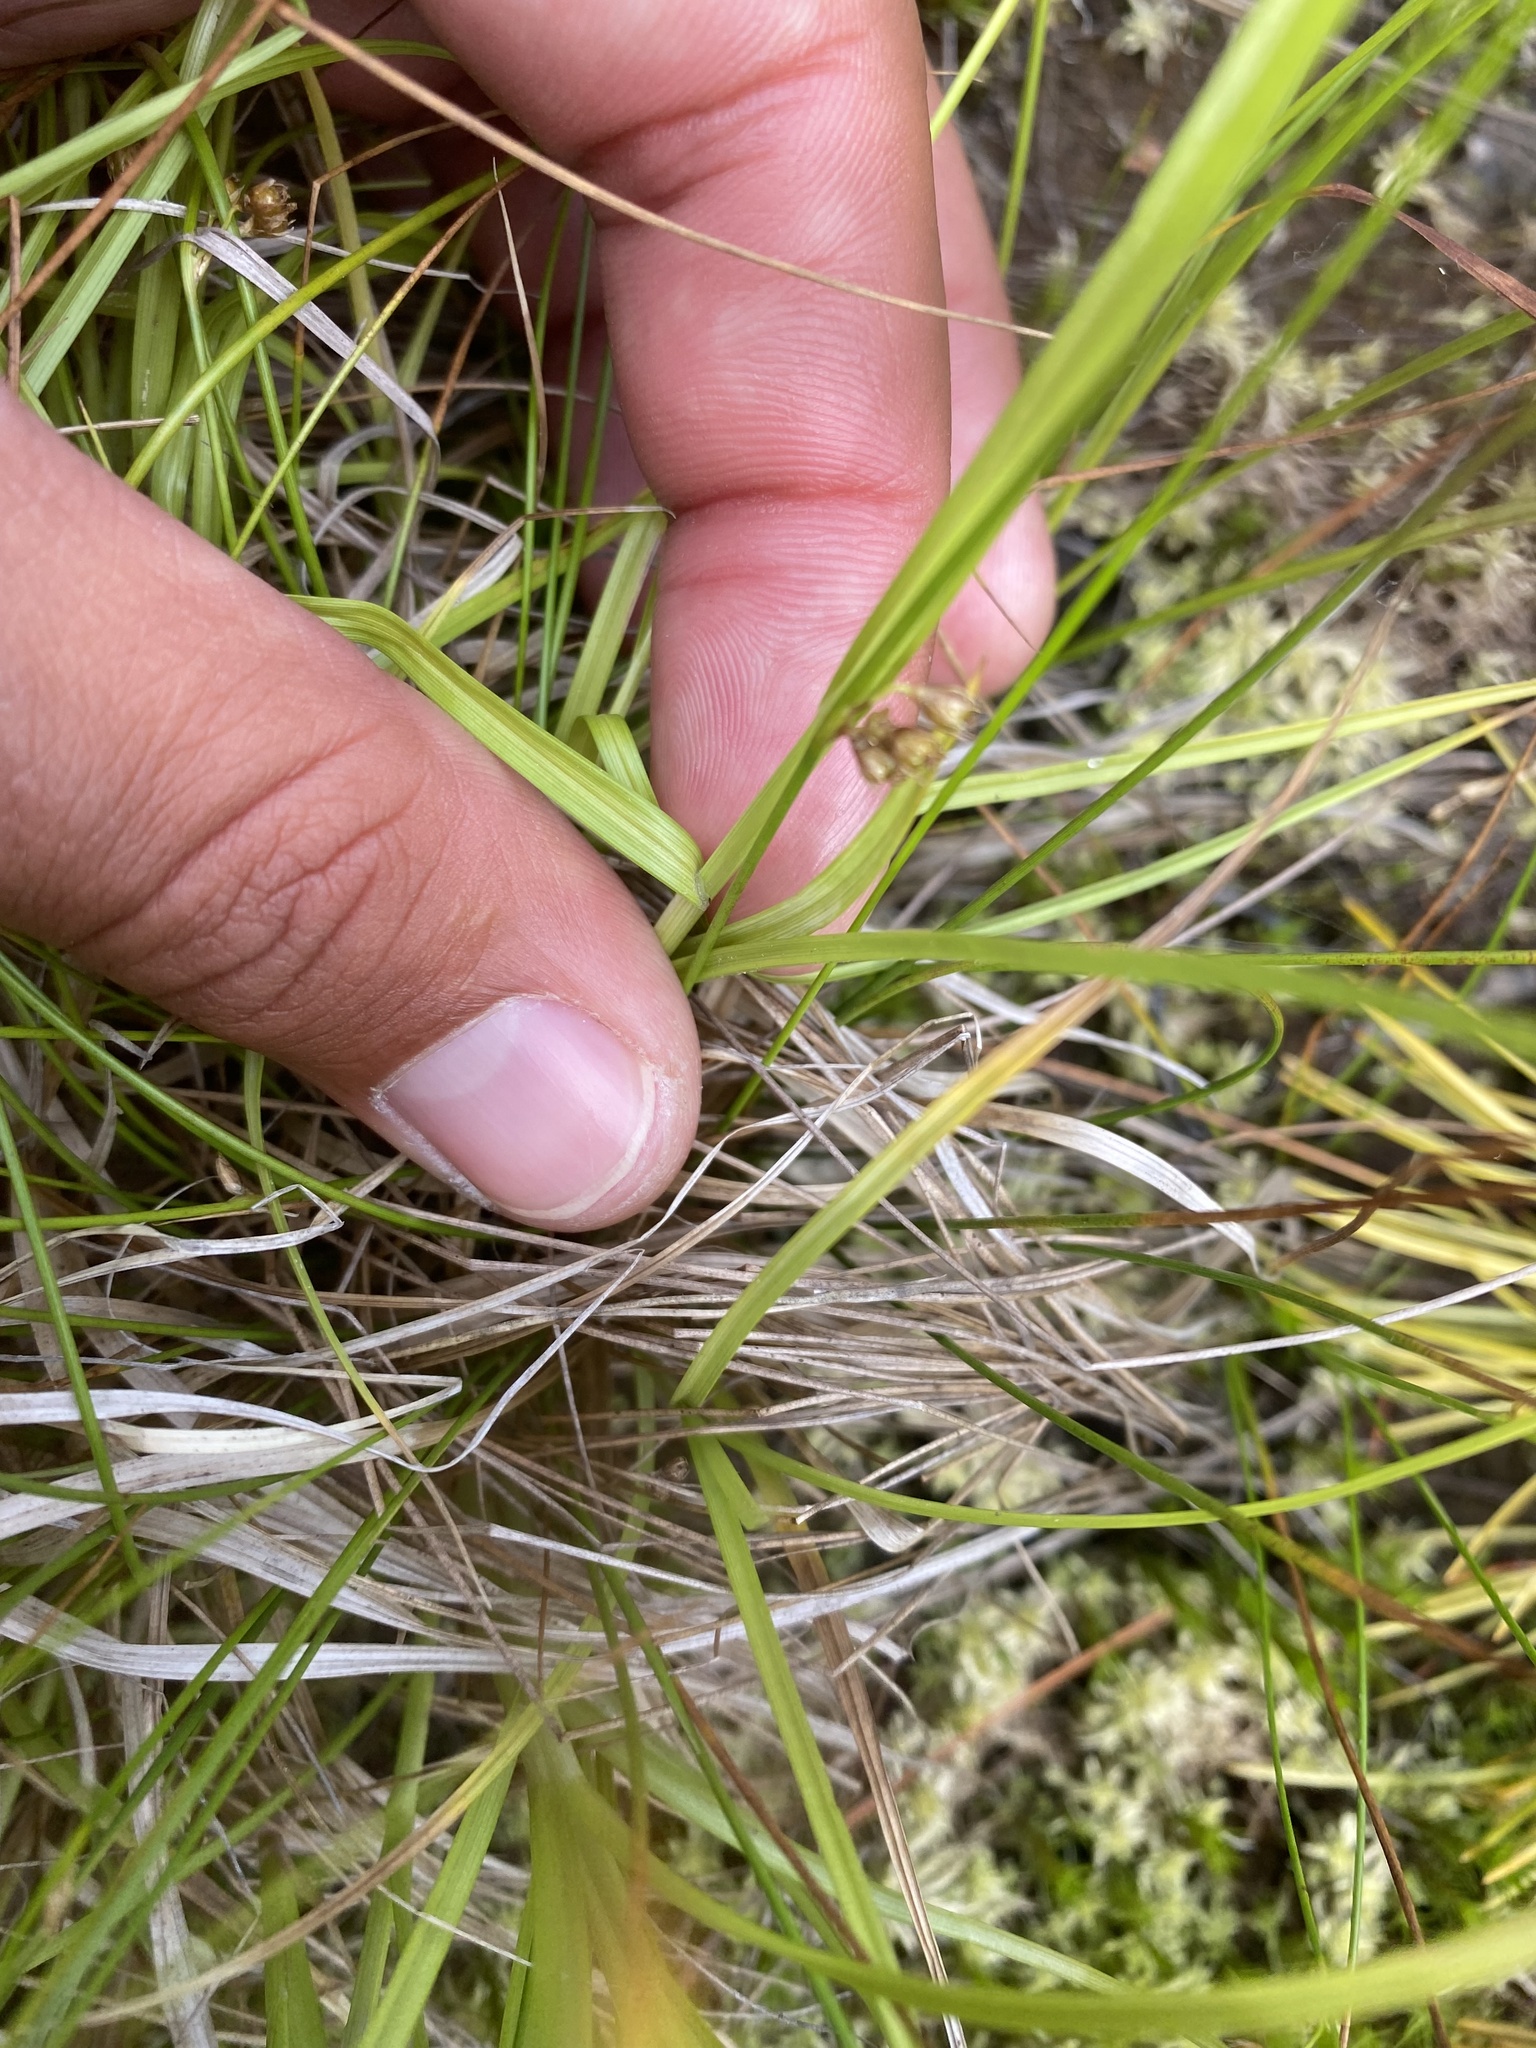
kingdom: Plantae
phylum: Tracheophyta
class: Liliopsida
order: Poales
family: Cyperaceae
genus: Carex
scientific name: Carex leporina
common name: Oval sedge
